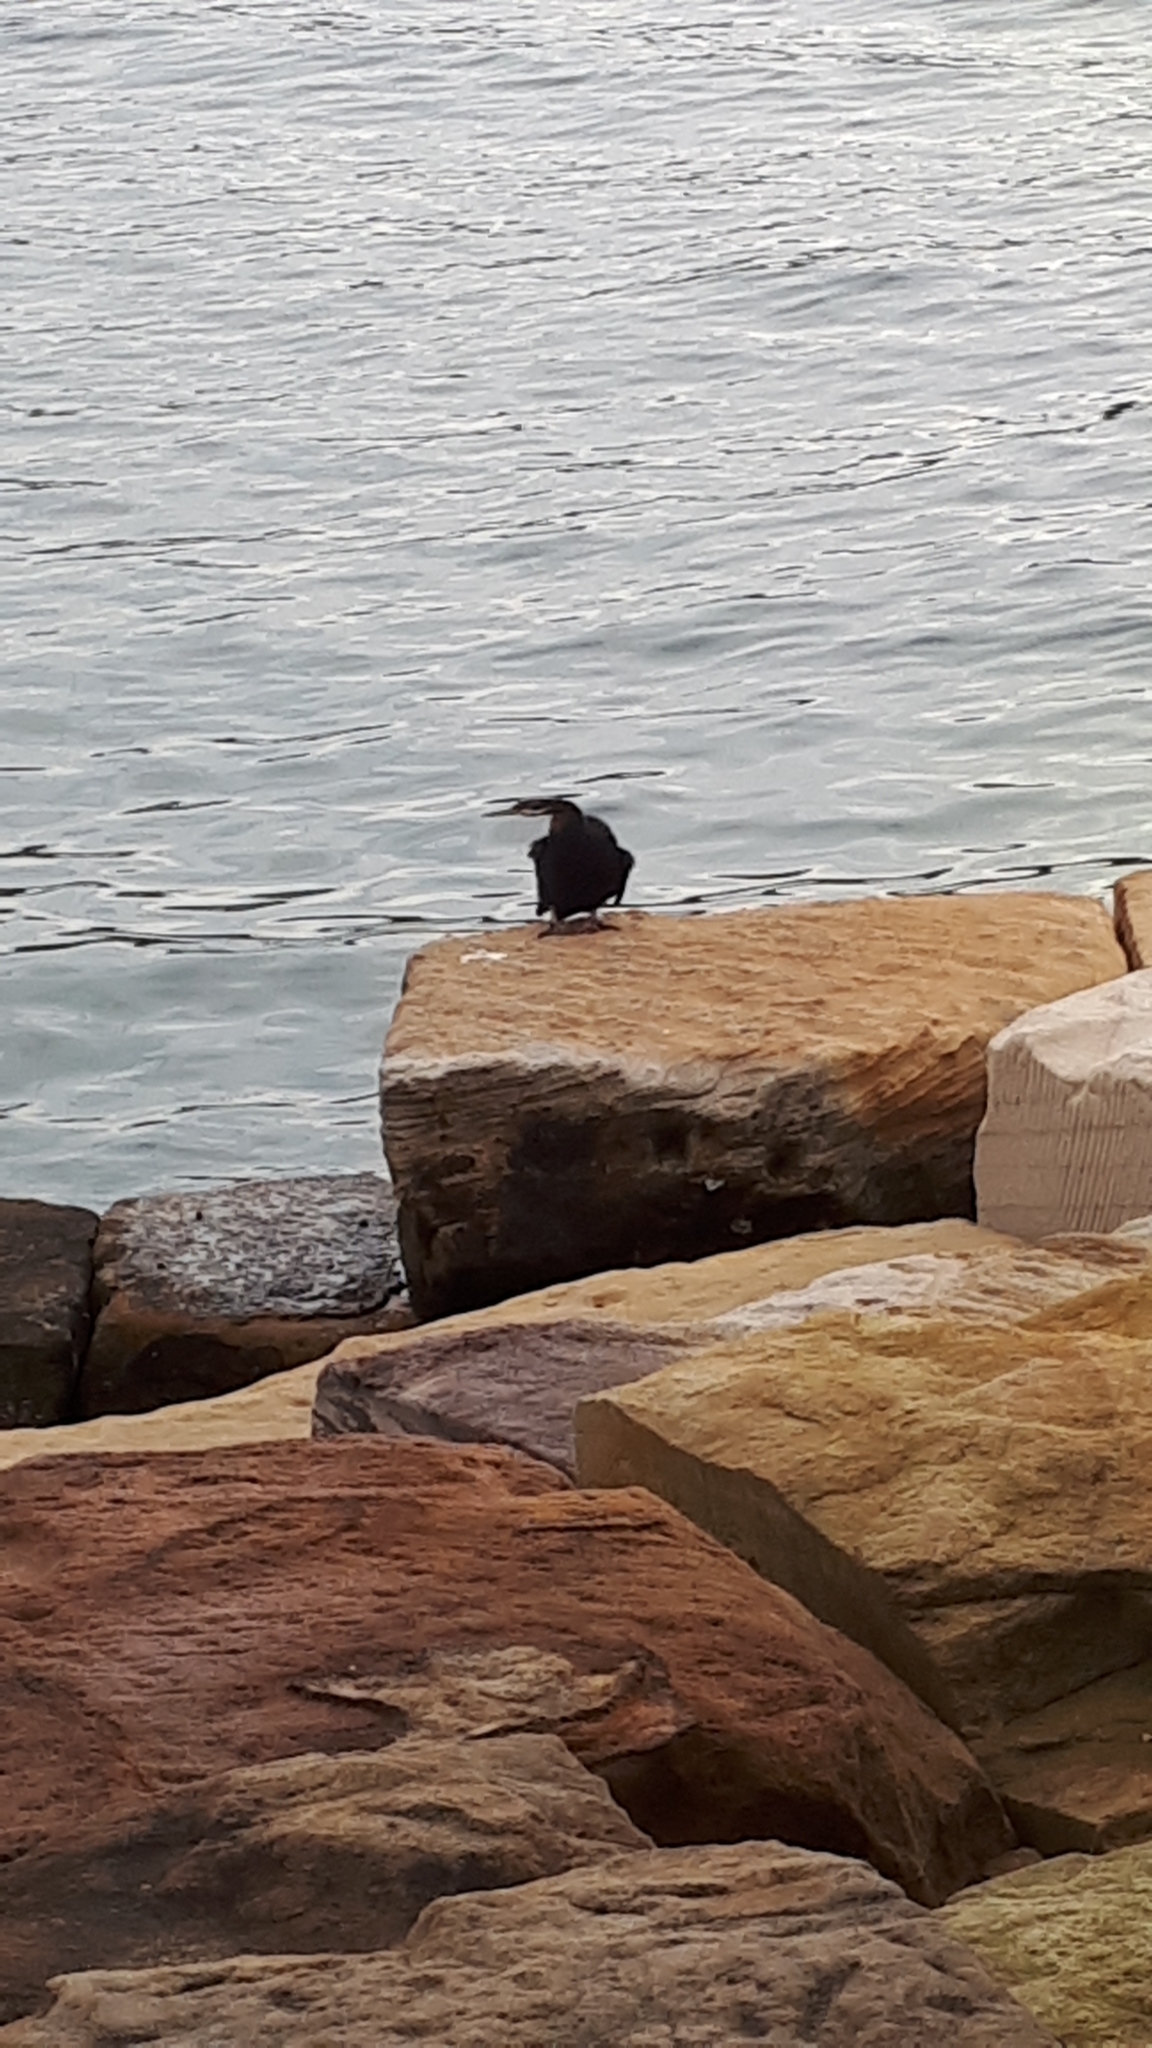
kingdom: Animalia
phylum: Chordata
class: Aves
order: Suliformes
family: Anhingidae
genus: Anhinga
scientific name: Anhinga novaehollandiae
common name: Australasian darter
